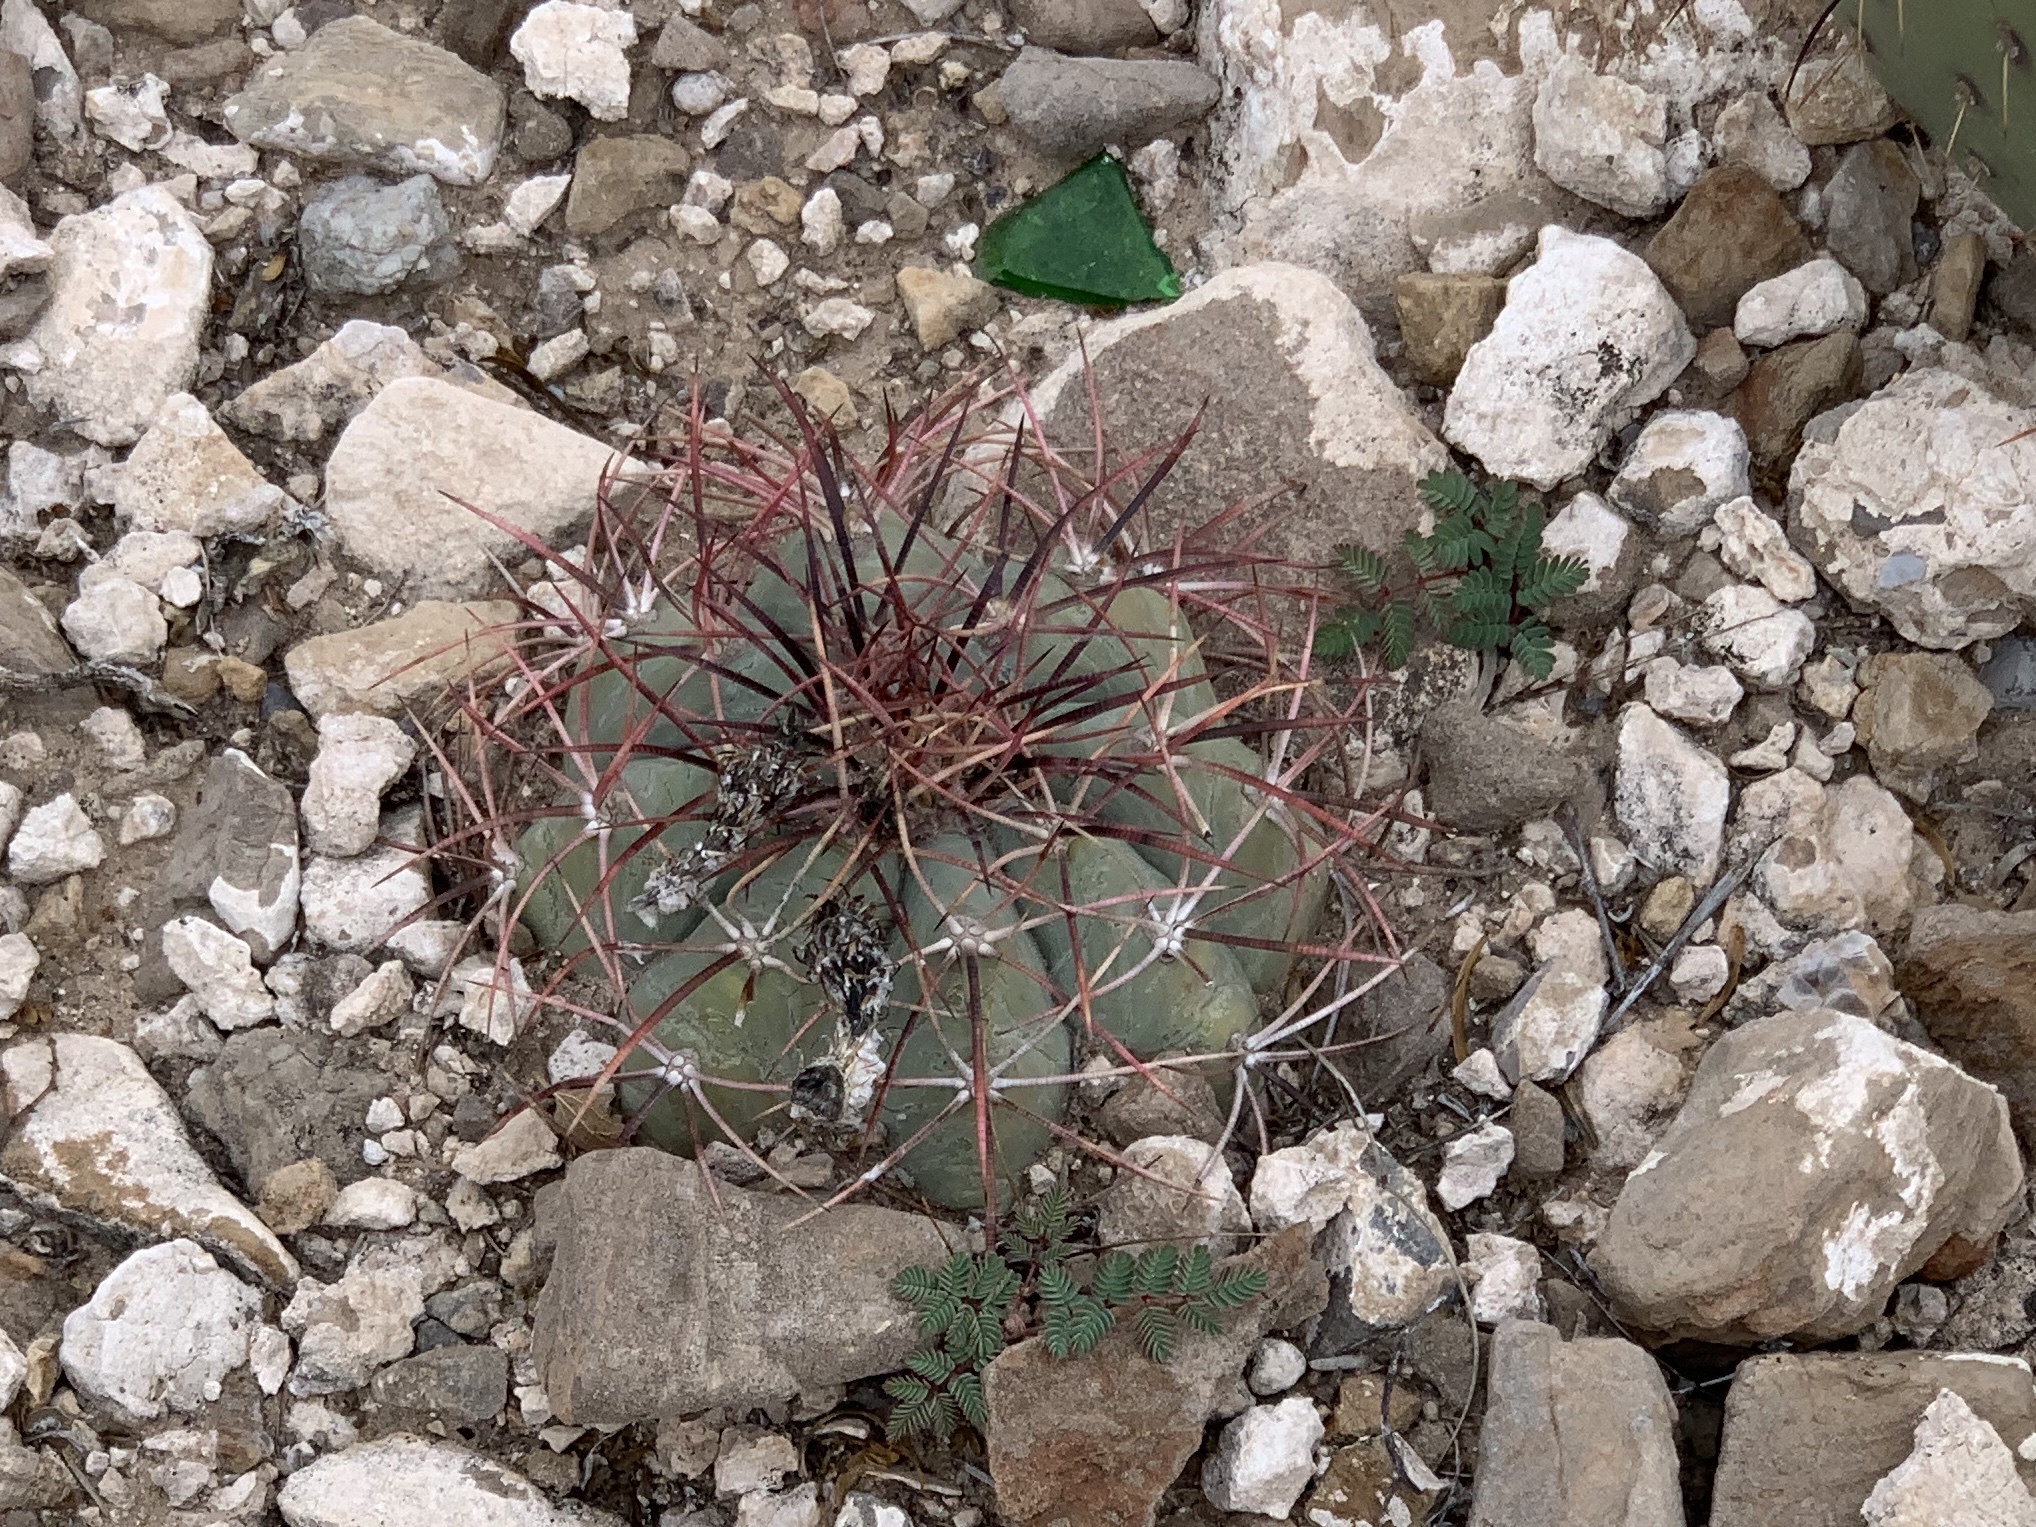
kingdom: Plantae
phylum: Tracheophyta
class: Magnoliopsida
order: Caryophyllales
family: Cactaceae
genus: Echinocactus
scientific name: Echinocactus horizonthalonius
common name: Devilshead
